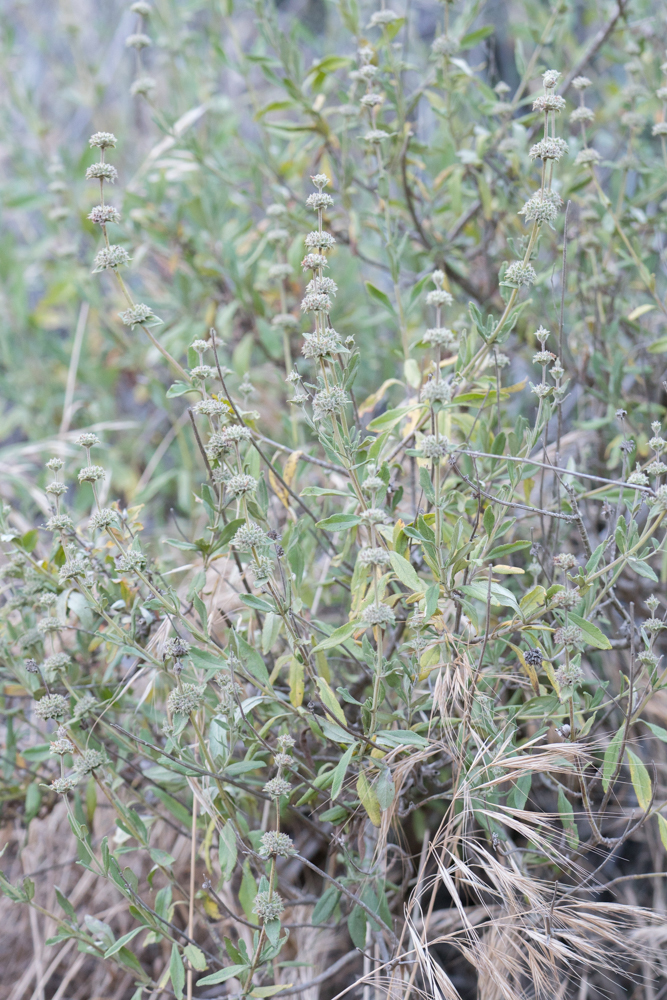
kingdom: Plantae
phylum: Tracheophyta
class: Magnoliopsida
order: Lamiales
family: Lamiaceae
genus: Salvia
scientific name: Salvia mellifera
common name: Black sage
